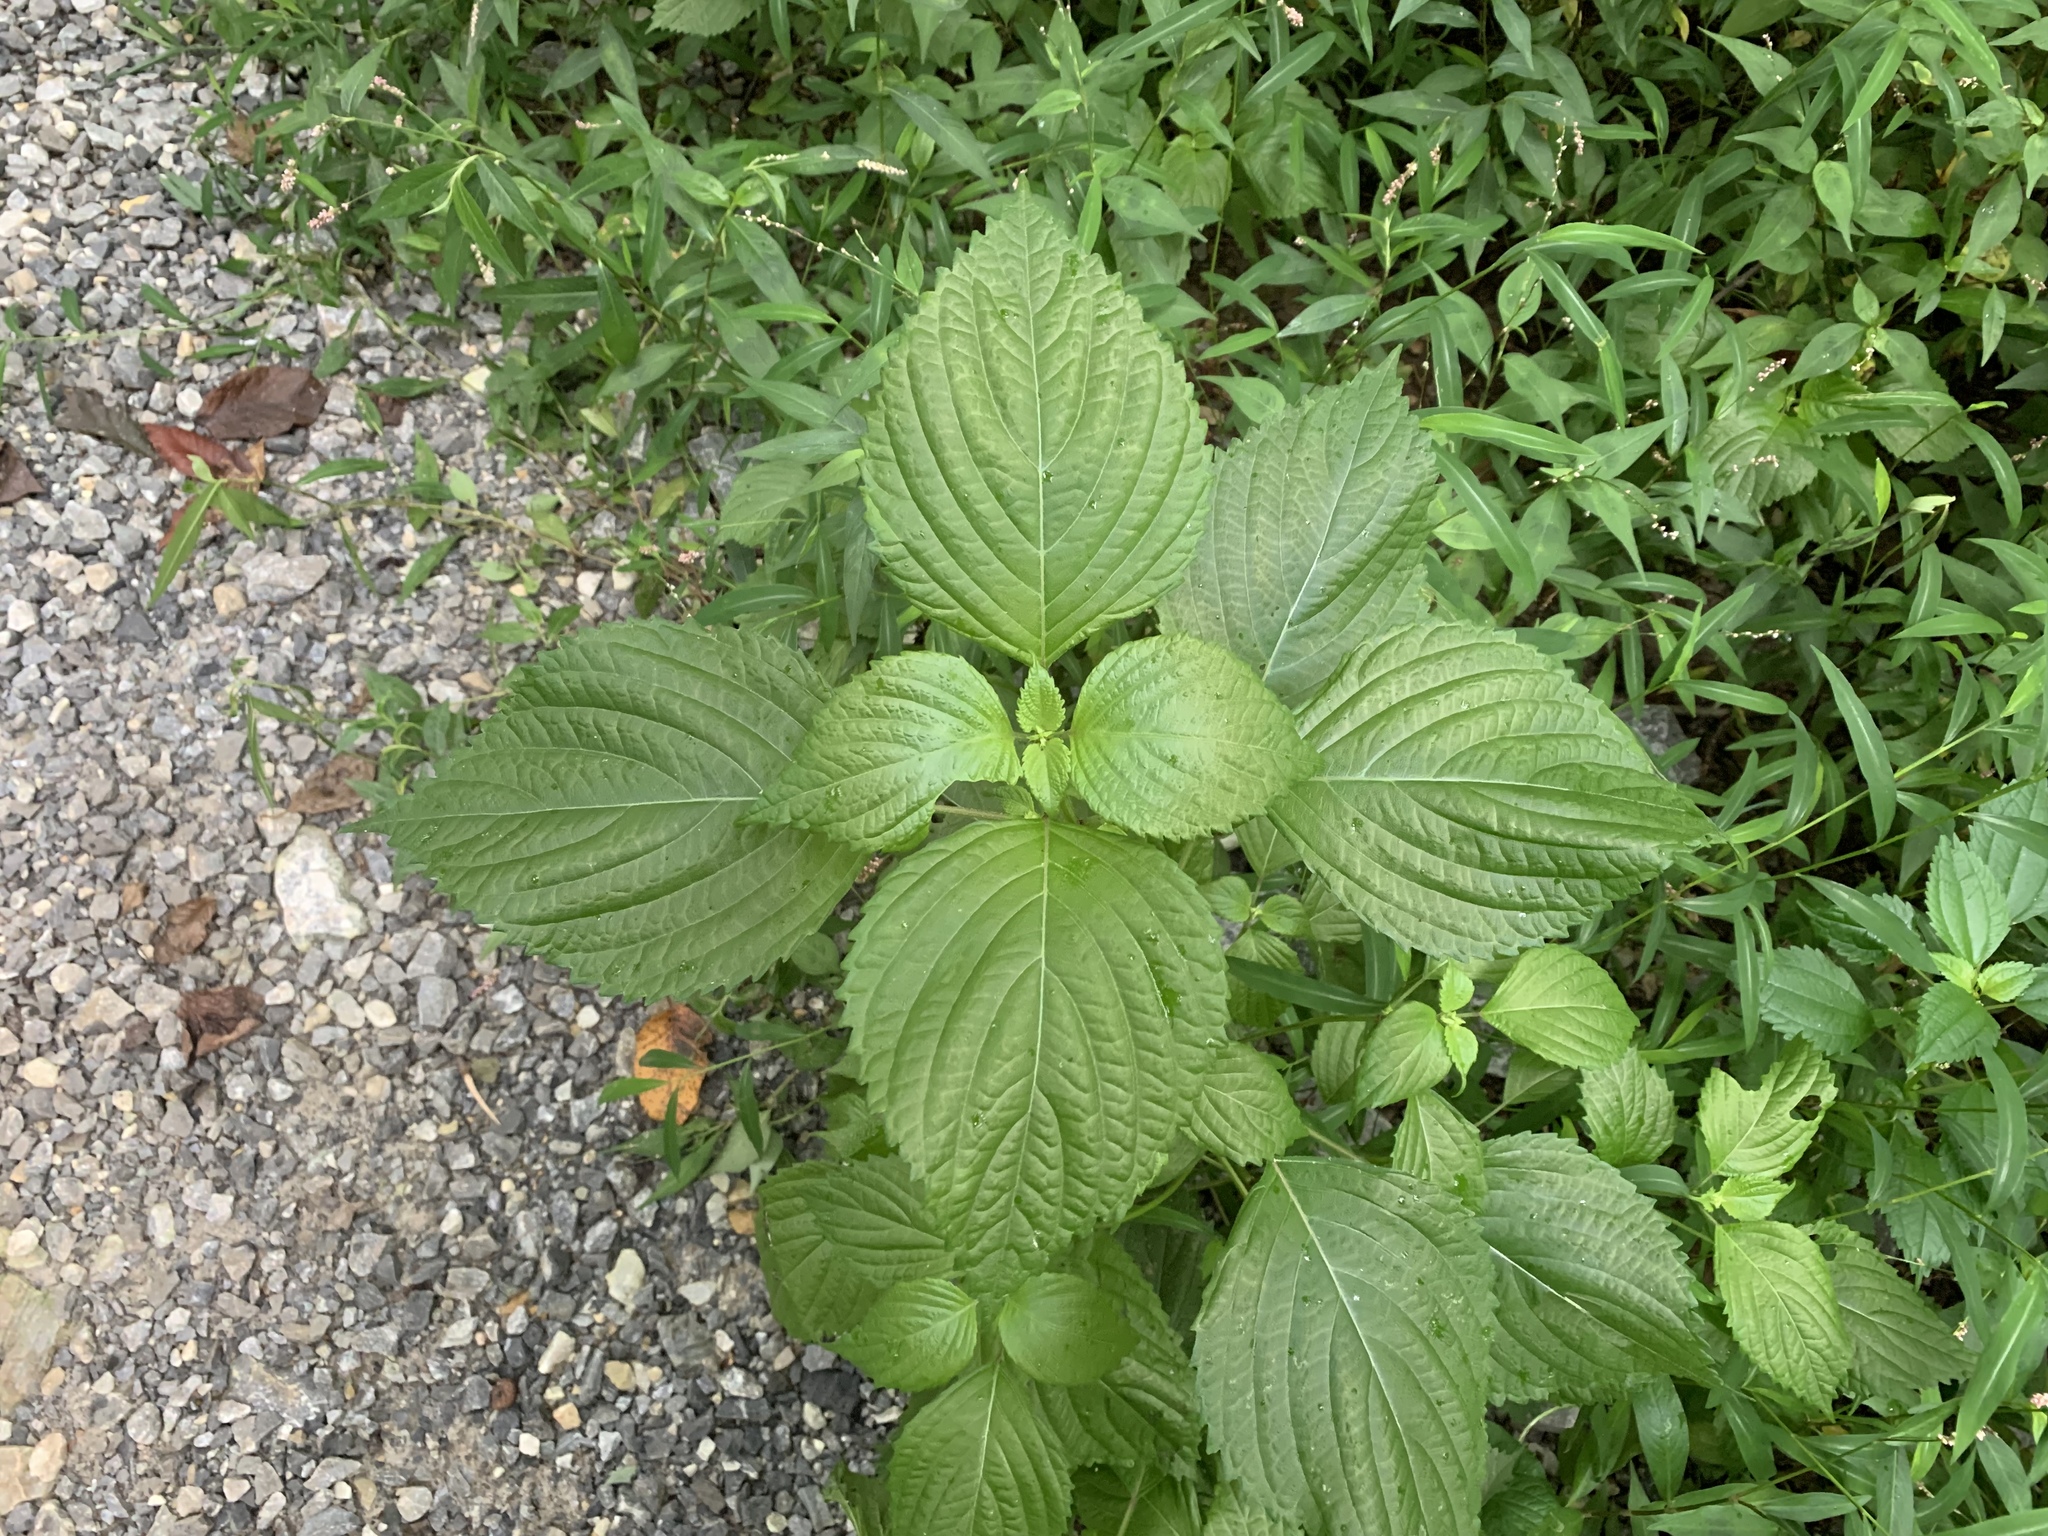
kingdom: Plantae
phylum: Tracheophyta
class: Magnoliopsida
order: Lamiales
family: Lamiaceae
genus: Perilla
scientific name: Perilla frutescens
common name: Perilla
